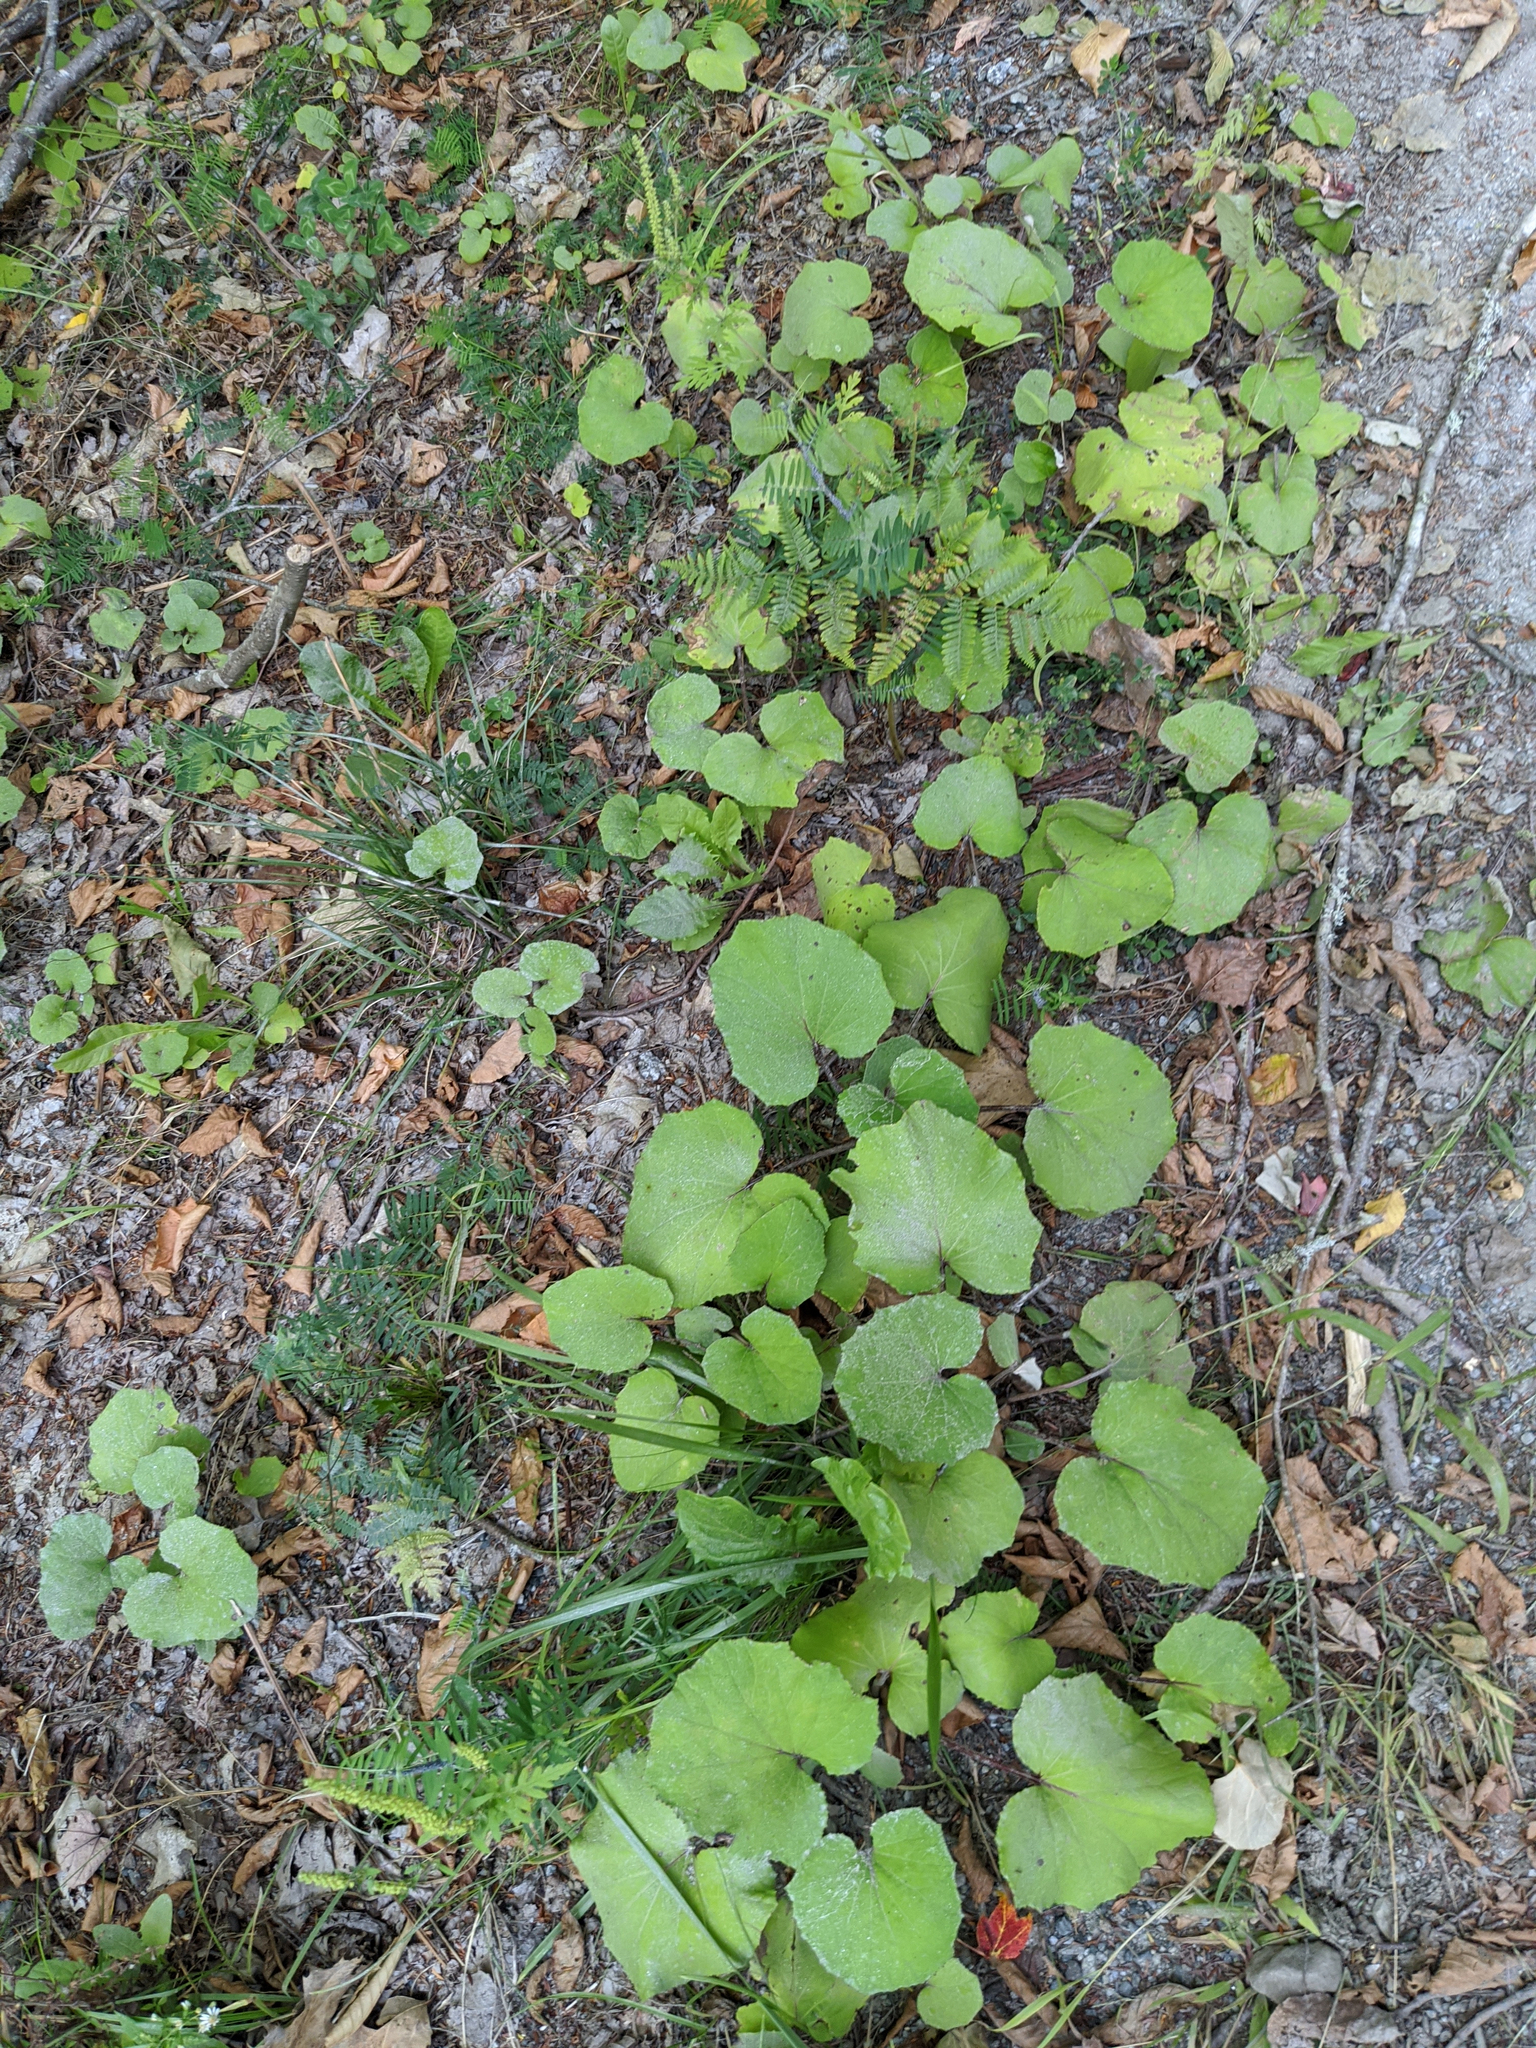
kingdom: Plantae
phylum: Tracheophyta
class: Magnoliopsida
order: Asterales
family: Asteraceae
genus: Tussilago
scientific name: Tussilago farfara
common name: Coltsfoot
